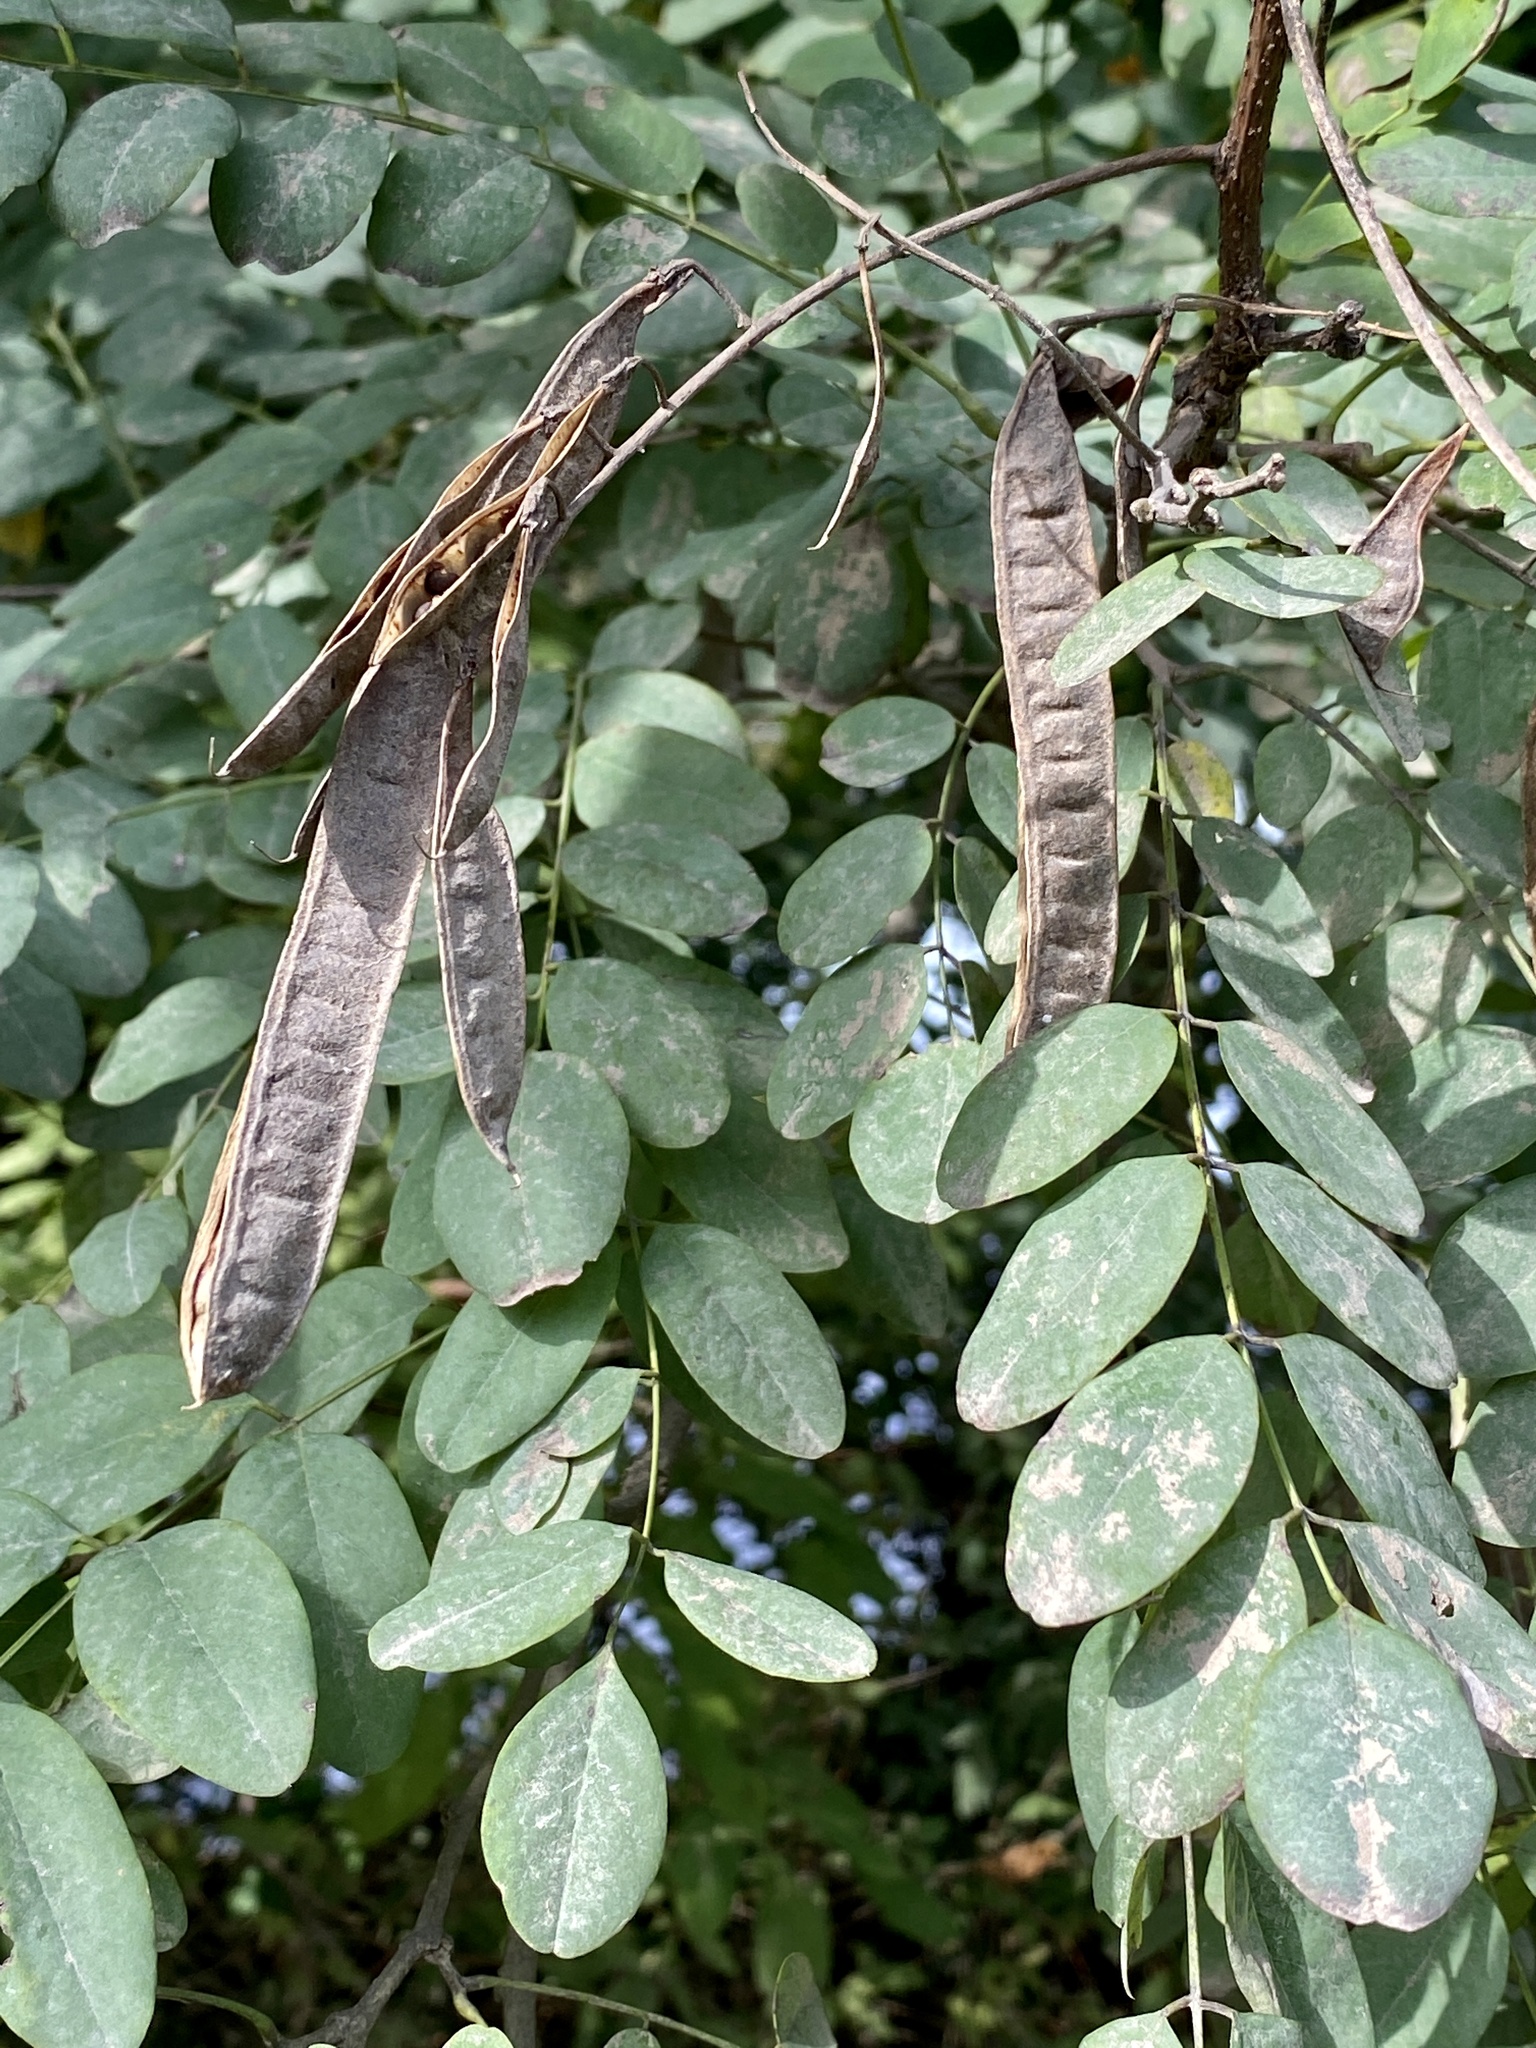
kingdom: Plantae
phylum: Tracheophyta
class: Magnoliopsida
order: Fabales
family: Fabaceae
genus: Robinia
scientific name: Robinia pseudoacacia
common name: Black locust
